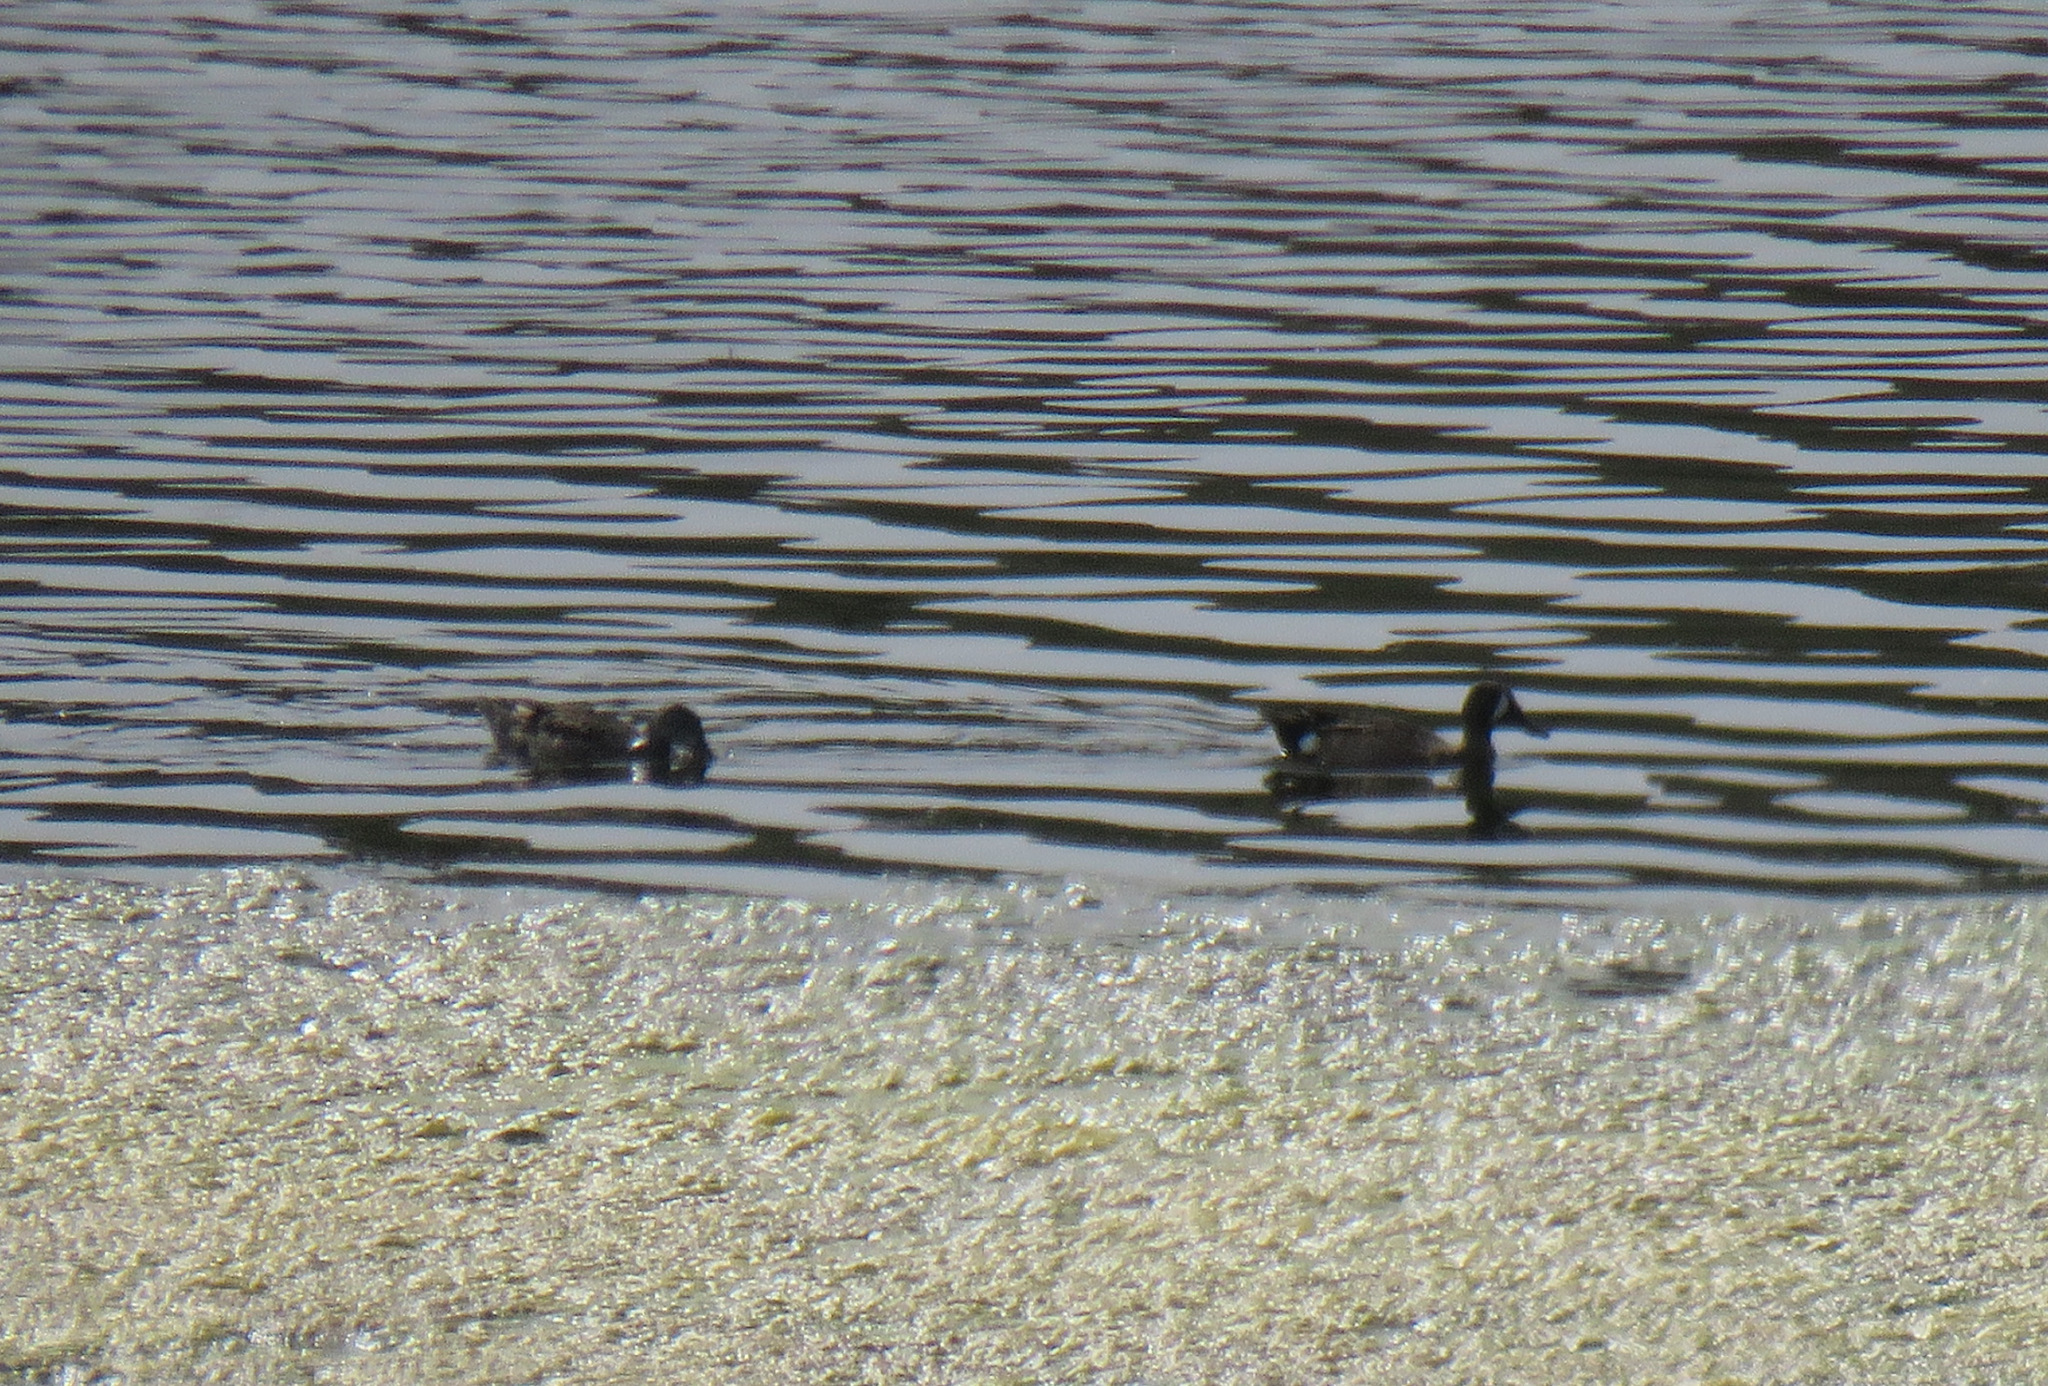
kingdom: Animalia
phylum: Chordata
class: Aves
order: Anseriformes
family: Anatidae
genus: Spatula
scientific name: Spatula discors
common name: Blue-winged teal
